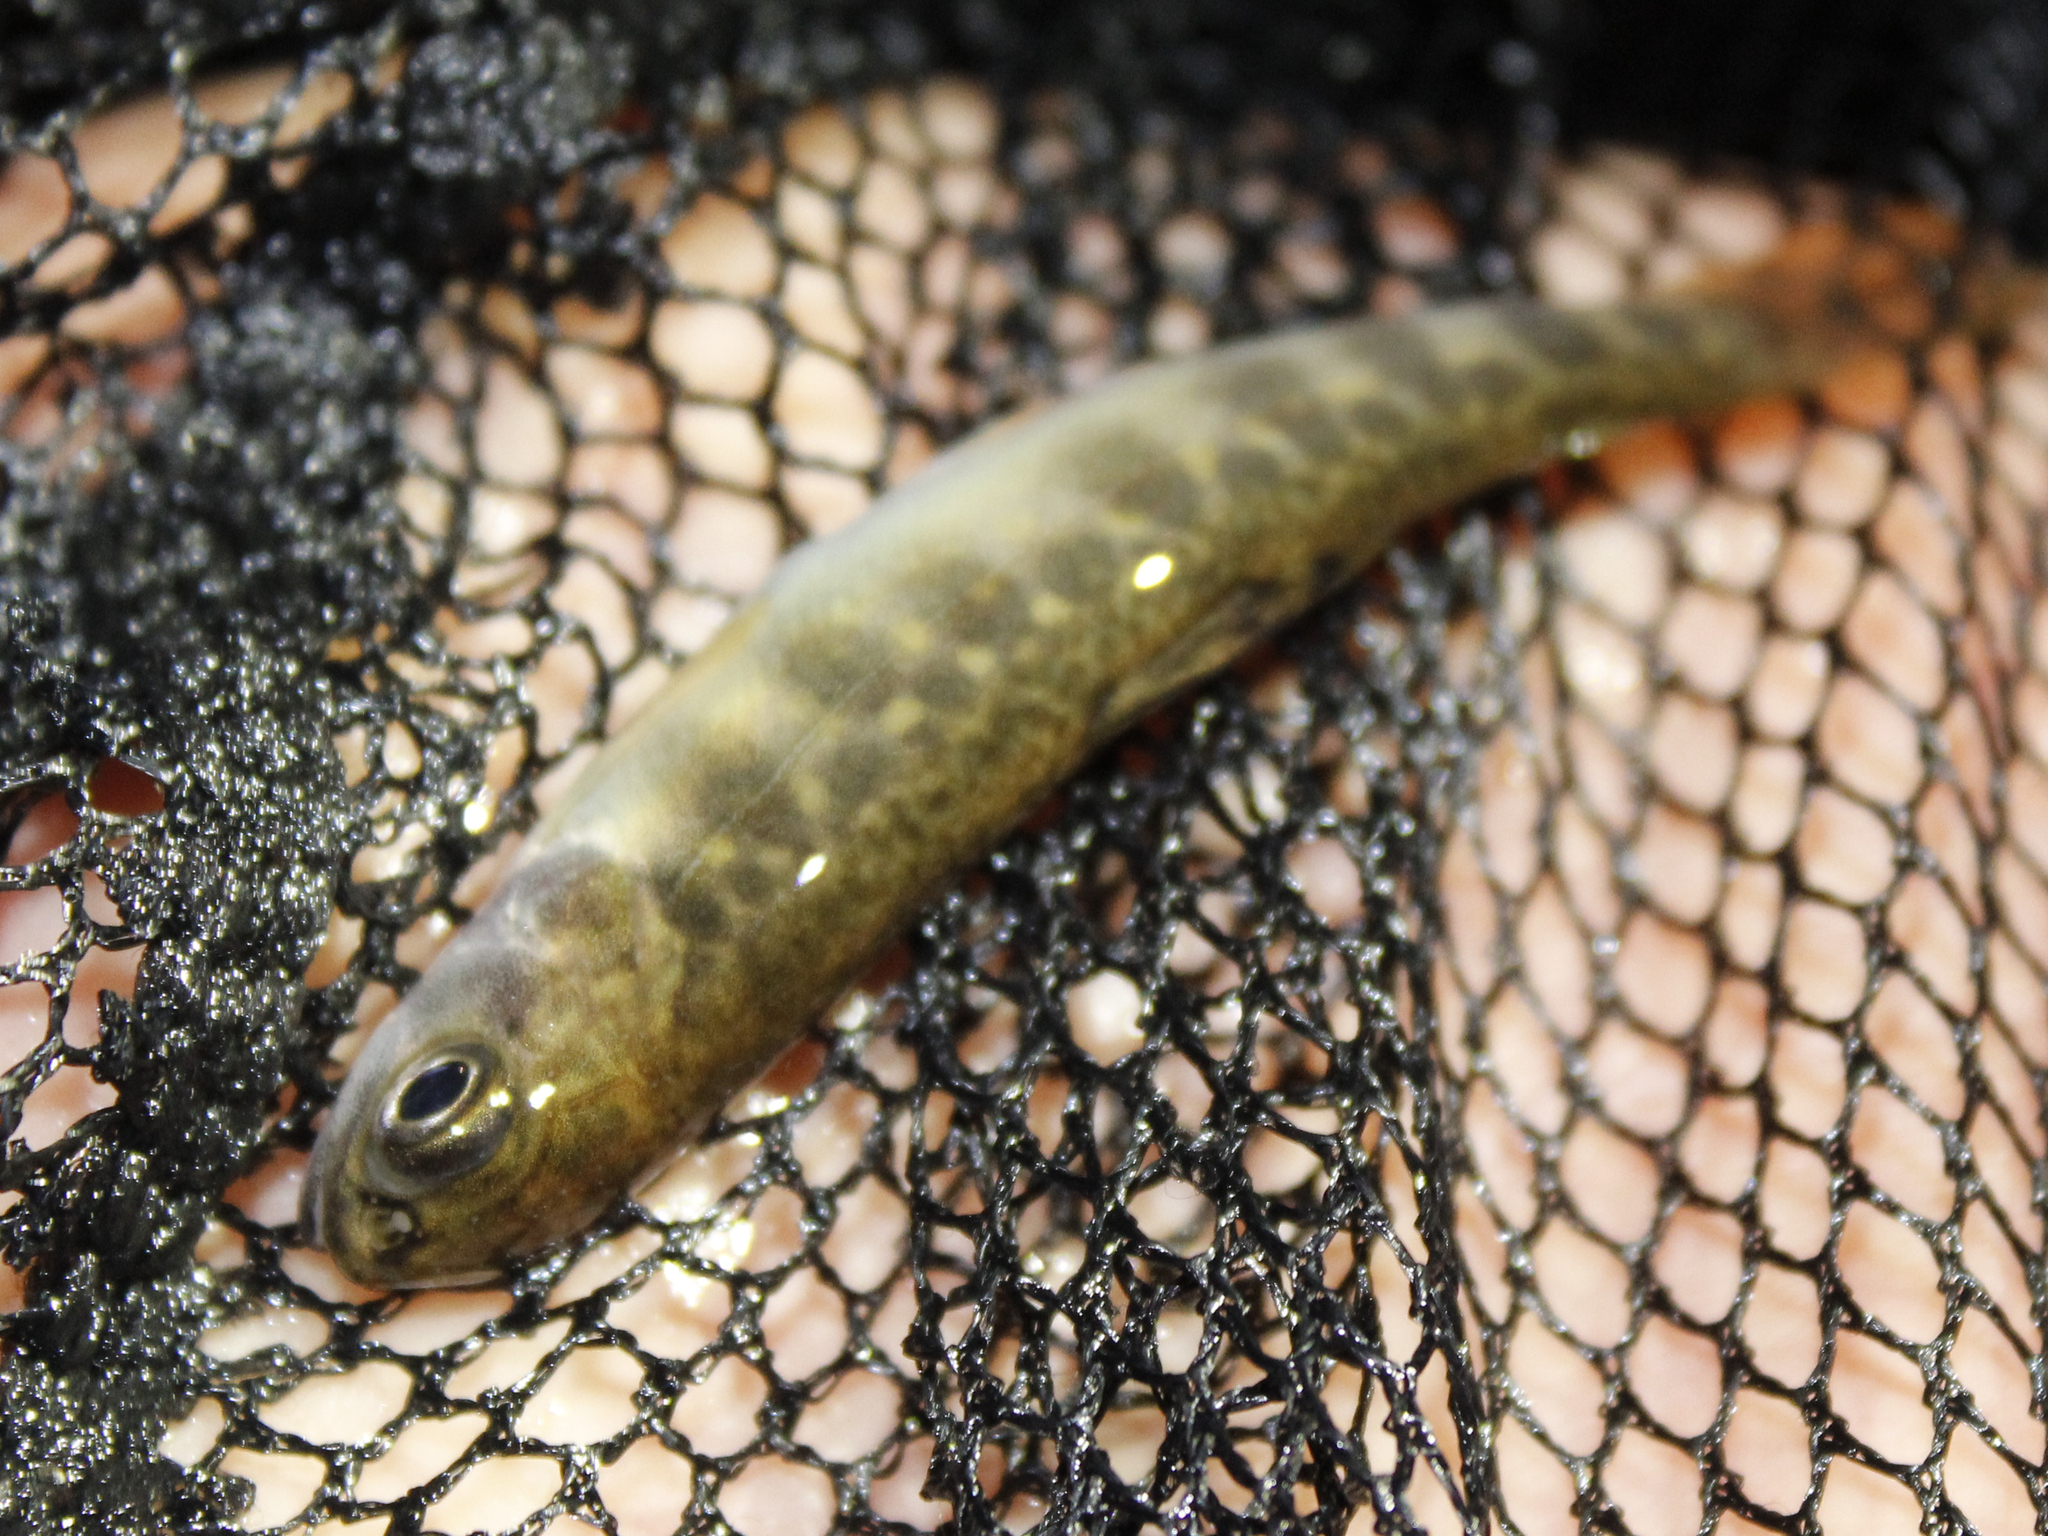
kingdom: Animalia
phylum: Chordata
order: Salmoniformes
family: Salmonidae
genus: Salvelinus
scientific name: Salvelinus fontinalis
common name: Brook trout
